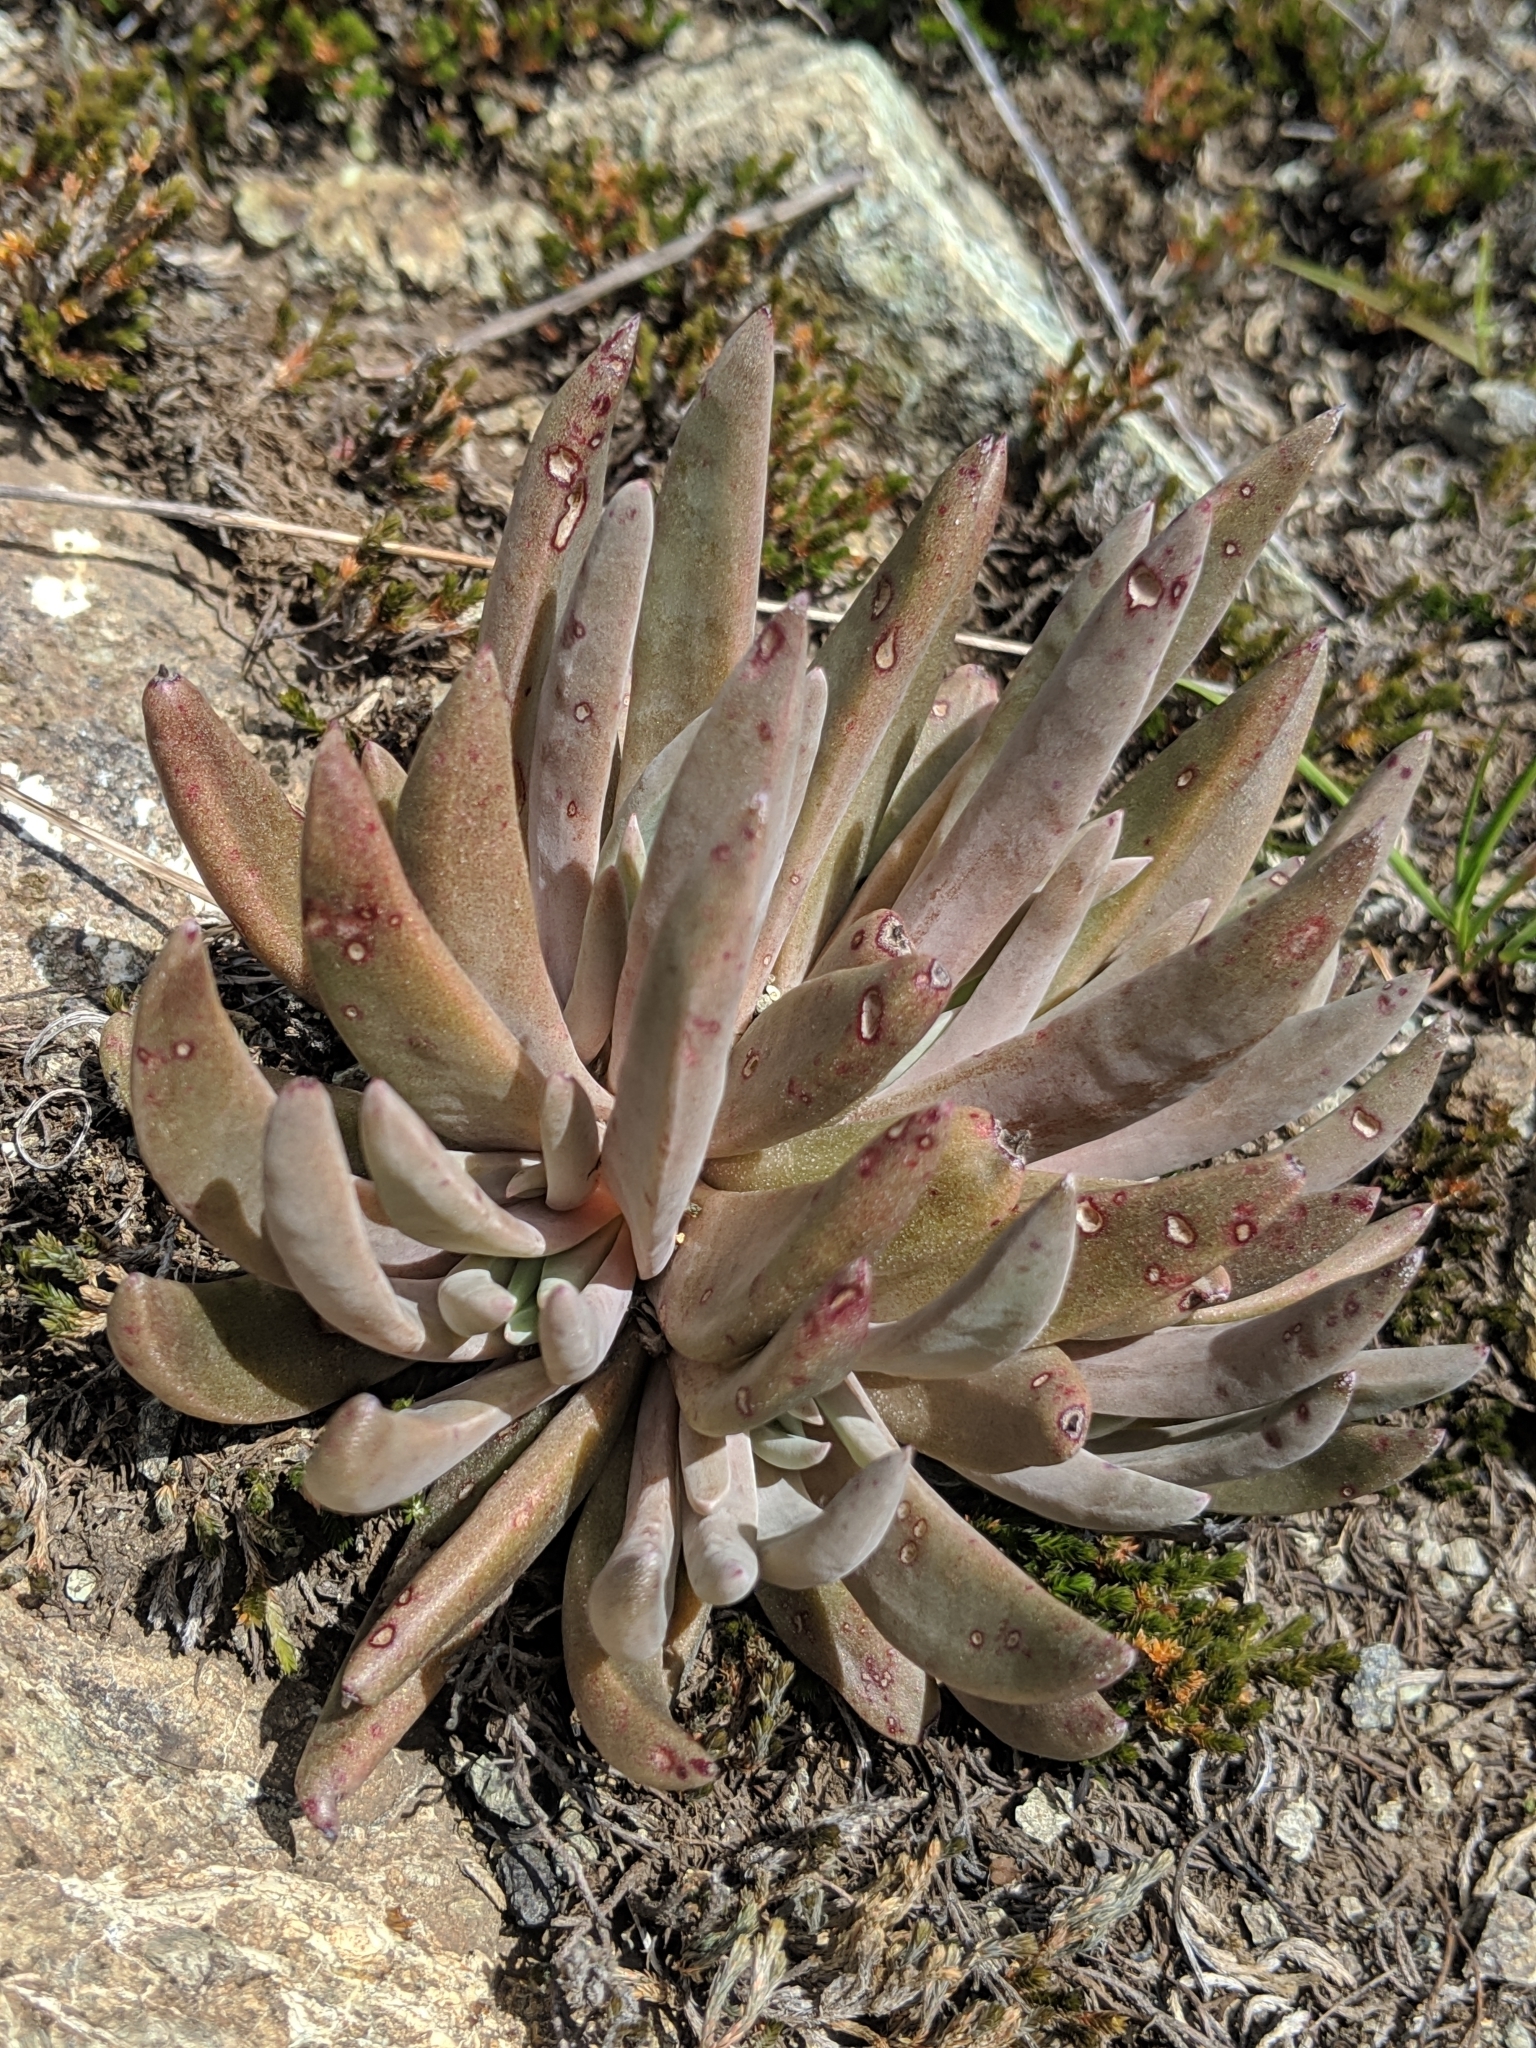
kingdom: Plantae
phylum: Tracheophyta
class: Magnoliopsida
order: Saxifragales
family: Crassulaceae
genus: Dudleya
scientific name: Dudleya abramsii
